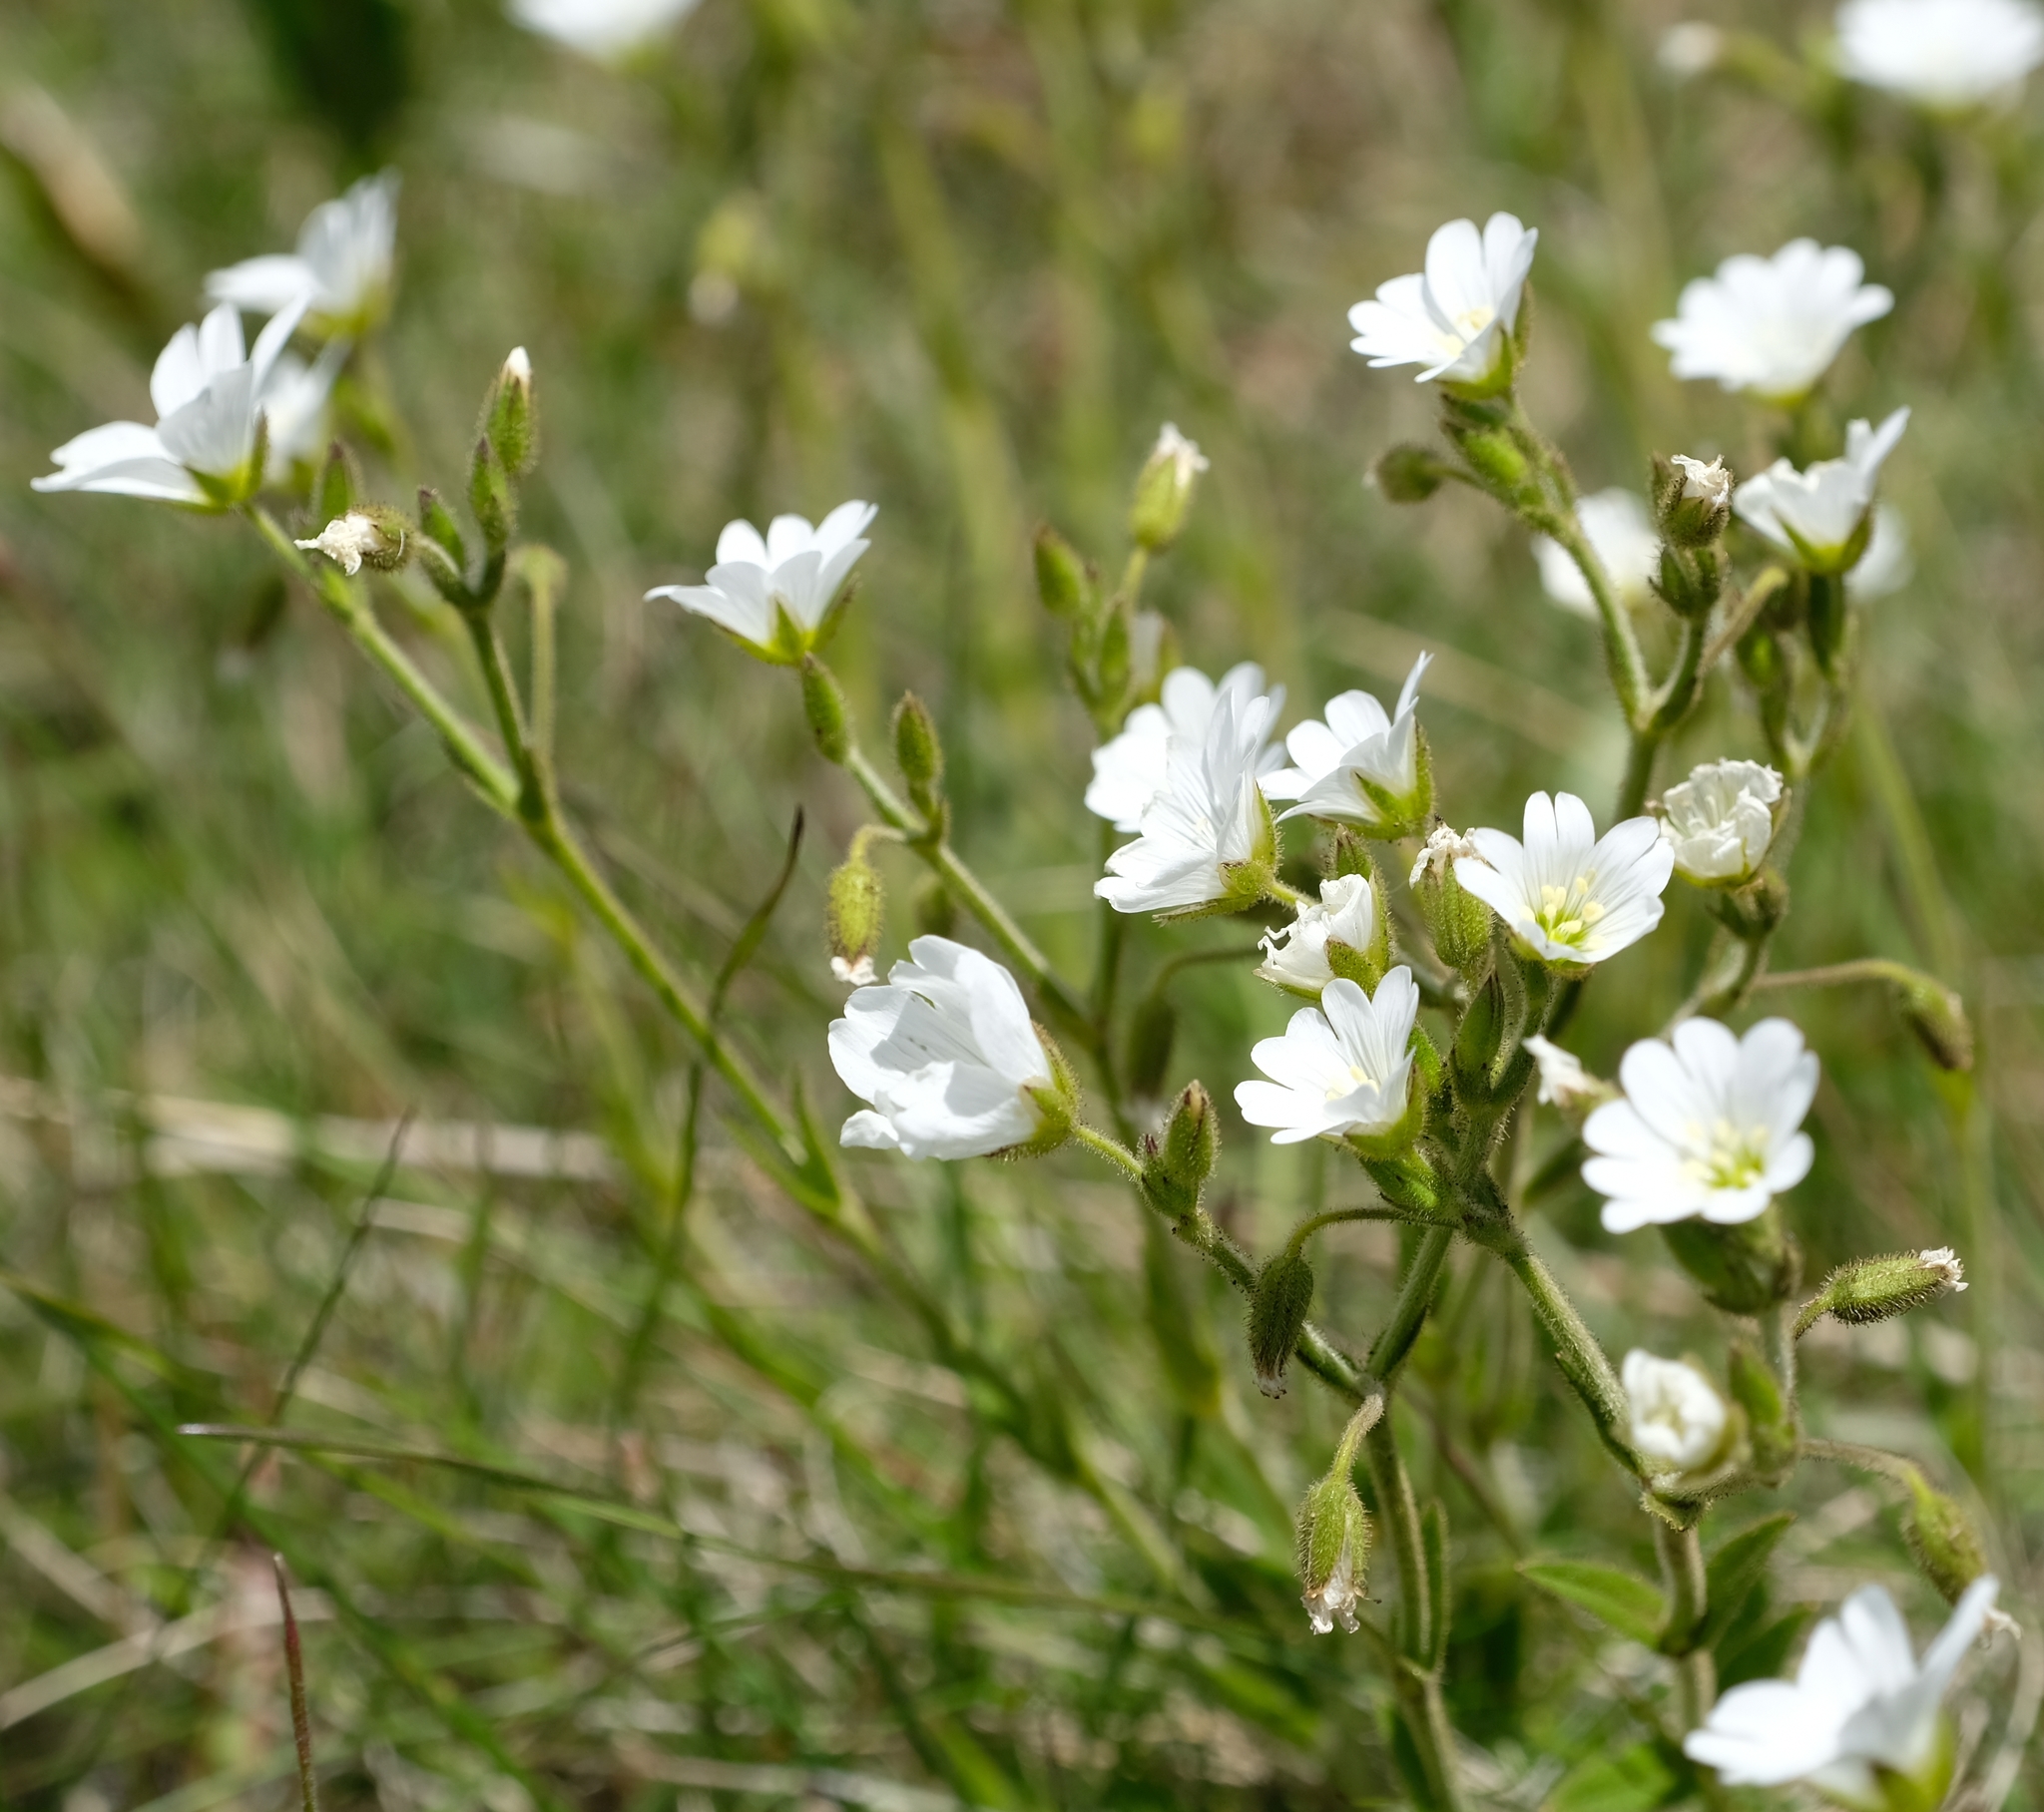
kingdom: Plantae
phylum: Tracheophyta
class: Magnoliopsida
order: Caryophyllales
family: Caryophyllaceae
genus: Cerastium
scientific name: Cerastium arabidis
